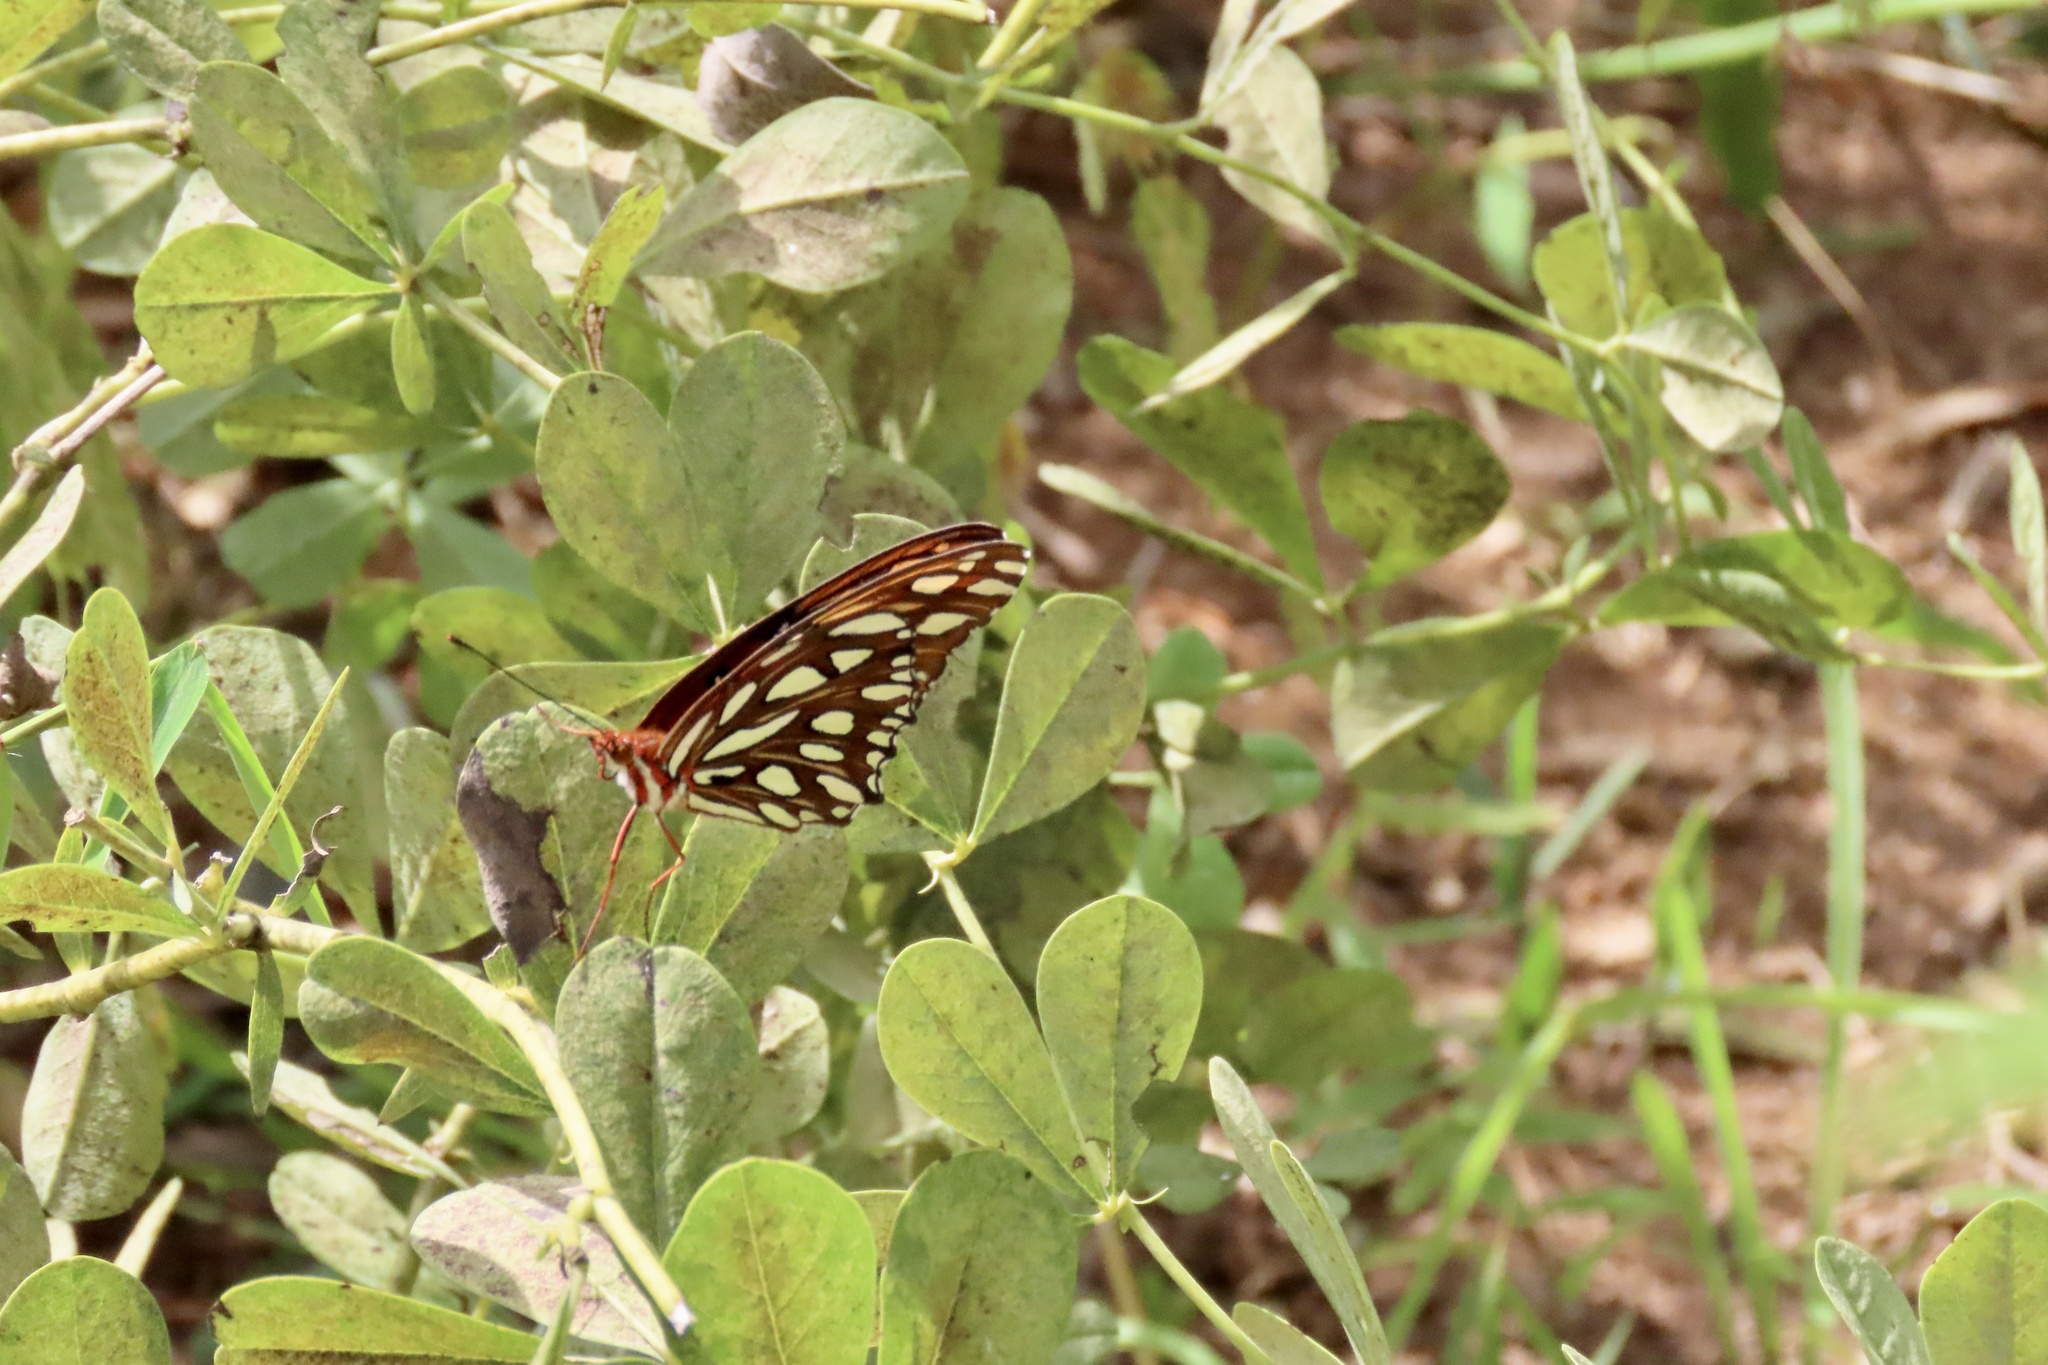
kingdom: Animalia
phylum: Arthropoda
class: Insecta
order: Lepidoptera
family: Nymphalidae
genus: Dione
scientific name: Dione vanillae
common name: Gulf fritillary
